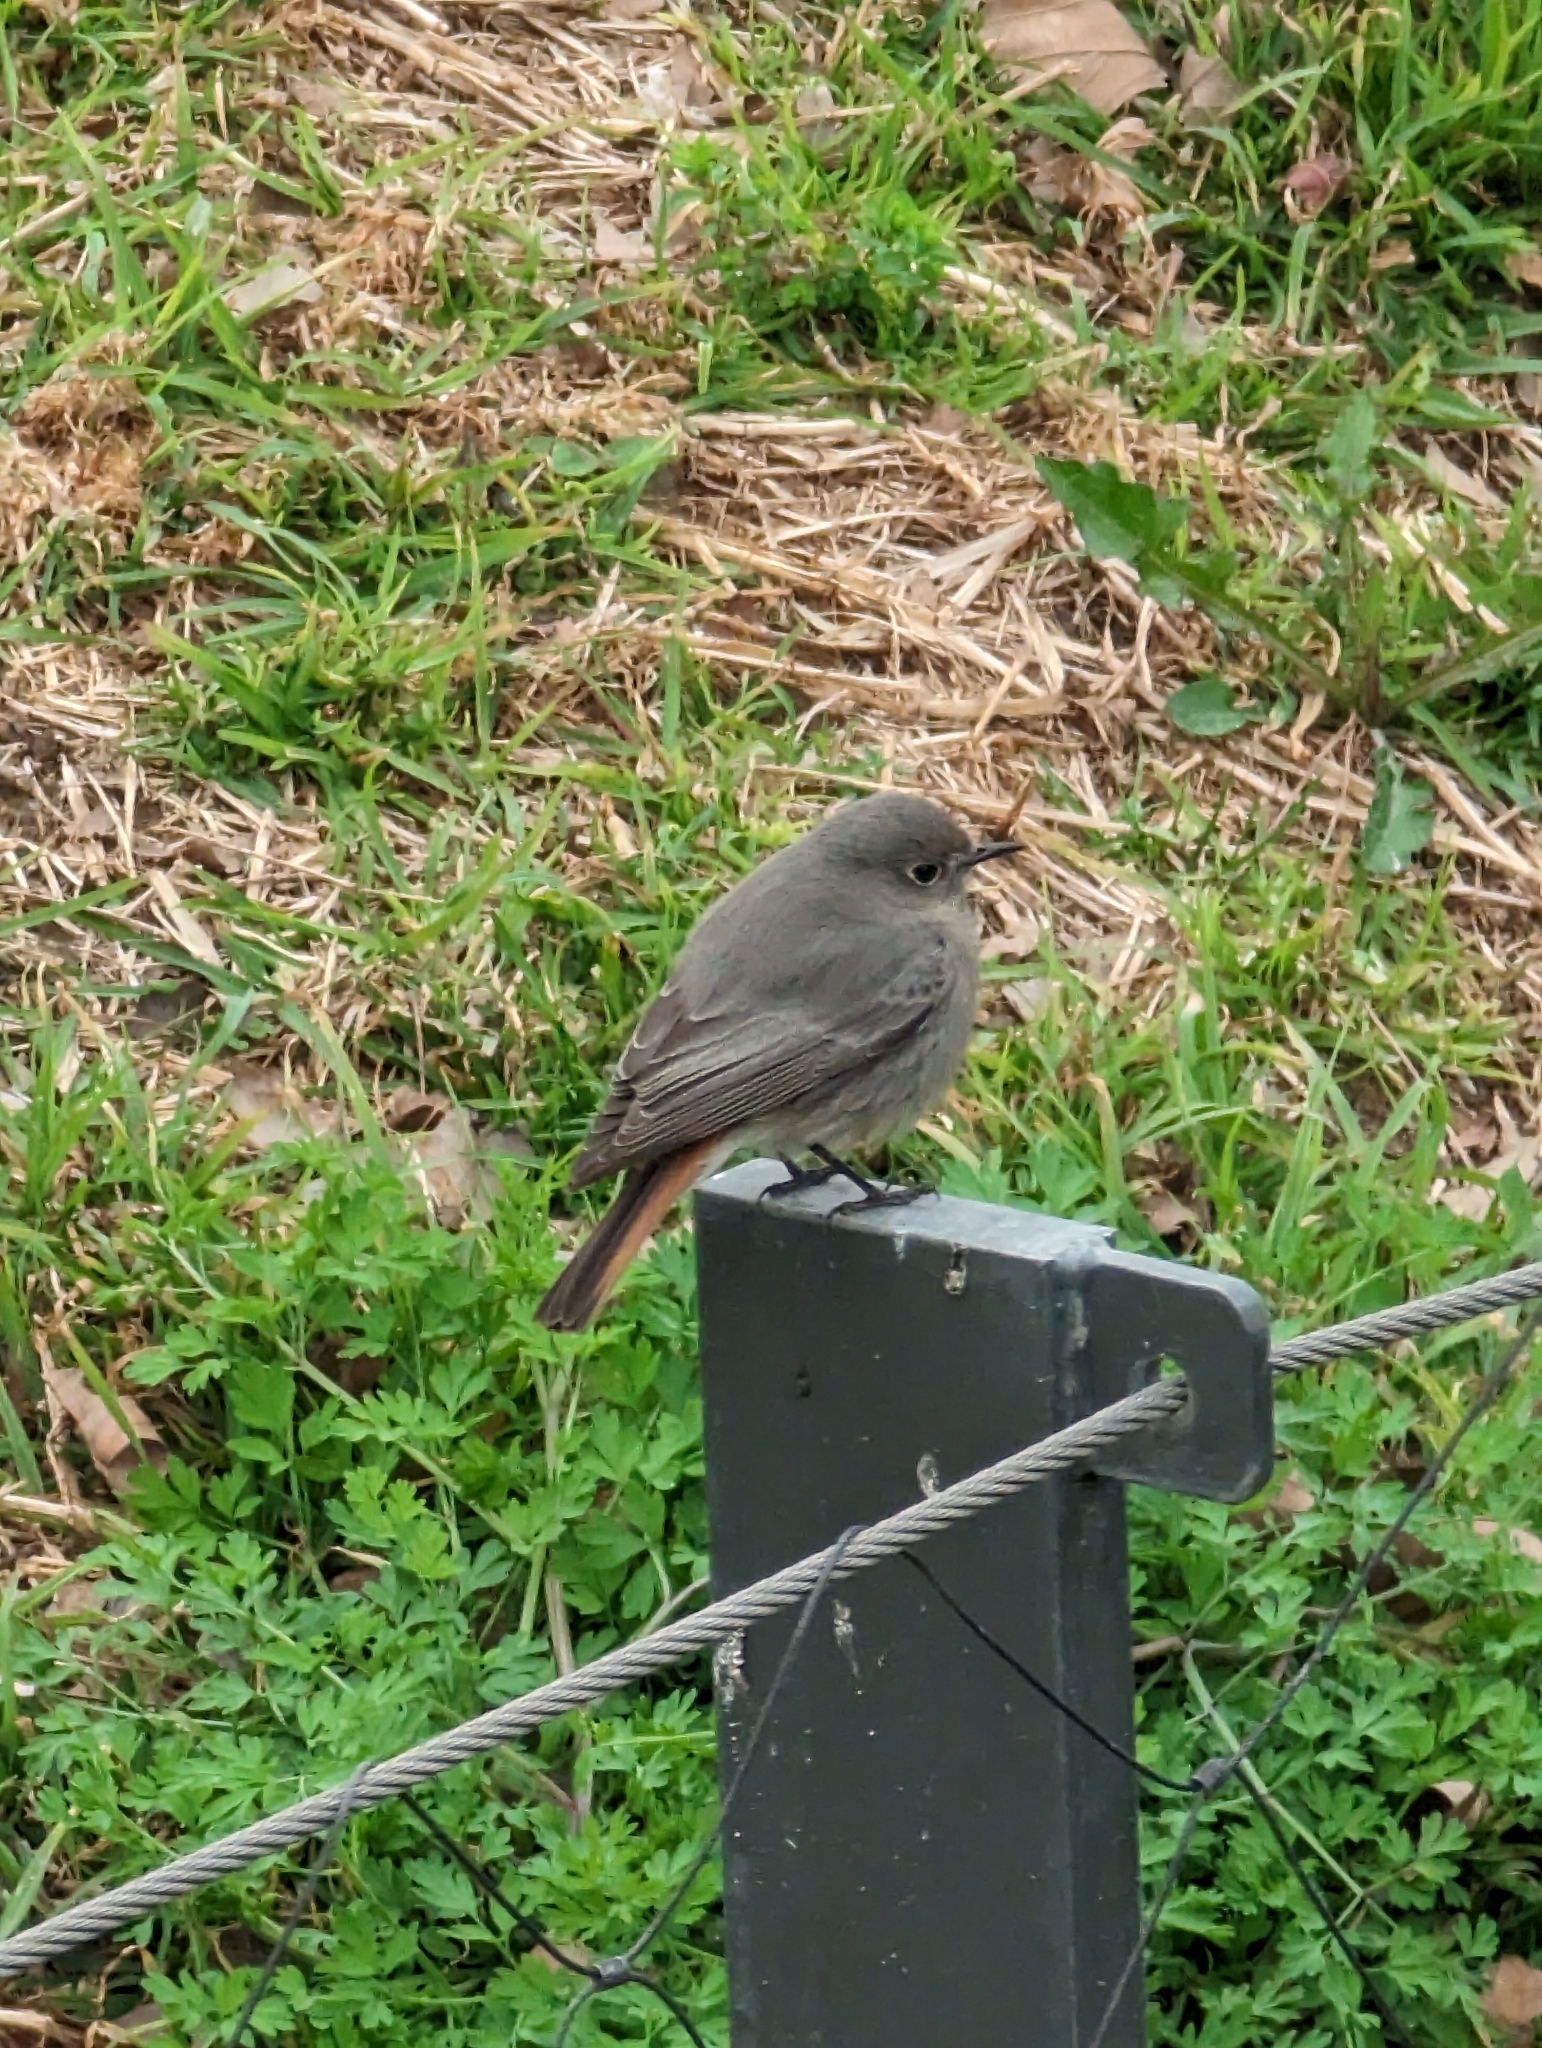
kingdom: Animalia
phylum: Chordata
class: Aves
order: Passeriformes
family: Muscicapidae
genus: Phoenicurus
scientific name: Phoenicurus ochruros
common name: Black redstart
